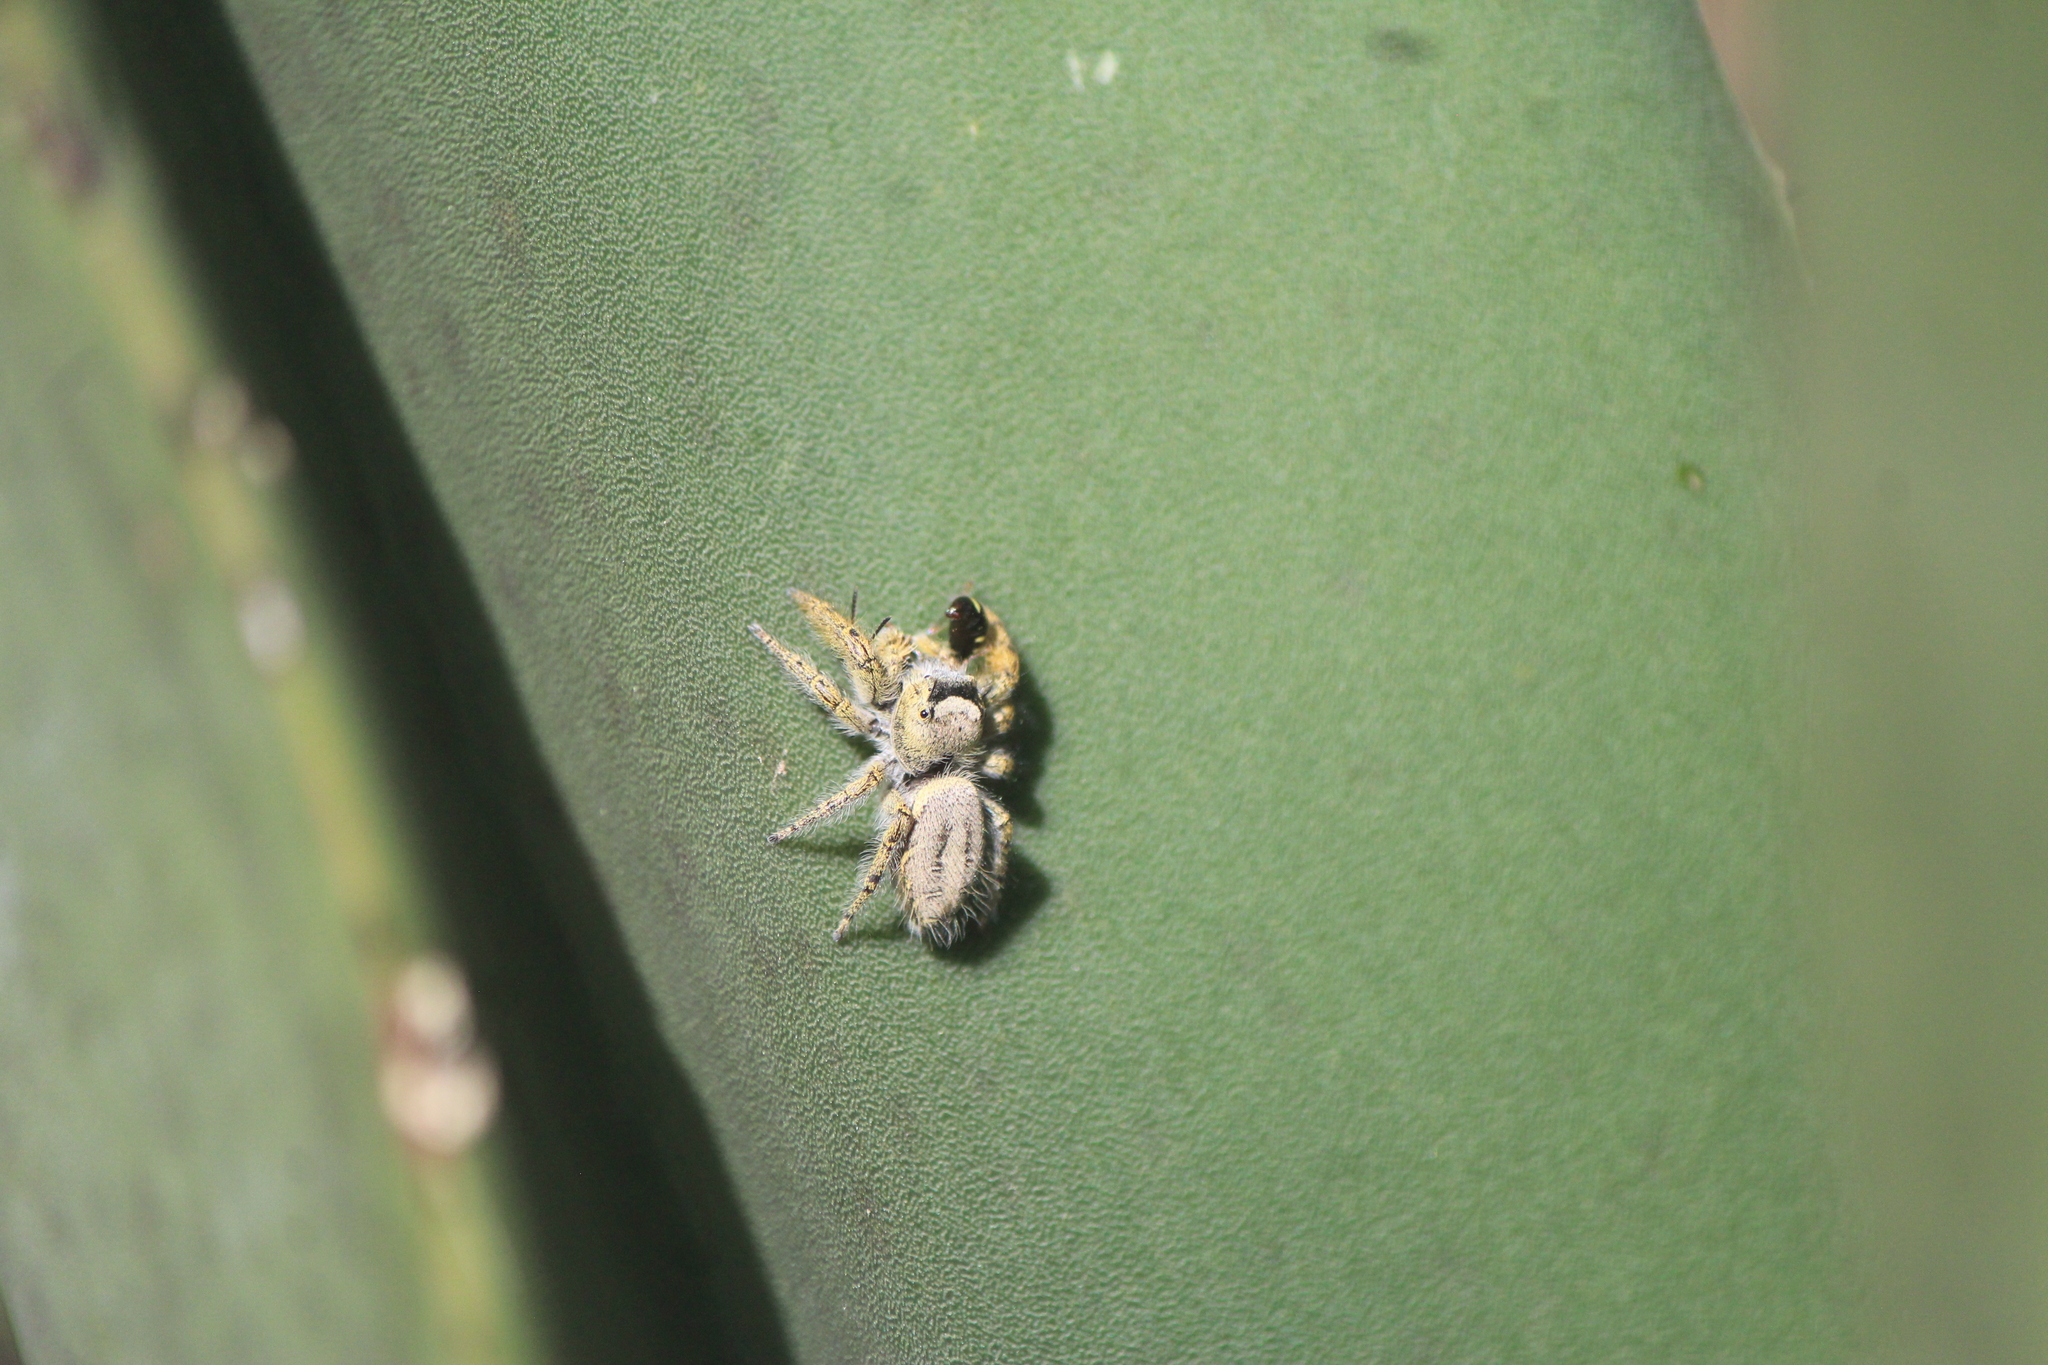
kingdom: Animalia
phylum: Arthropoda
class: Arachnida
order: Araneae
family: Salticidae
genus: Phidippus
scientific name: Phidippus arizonensis
